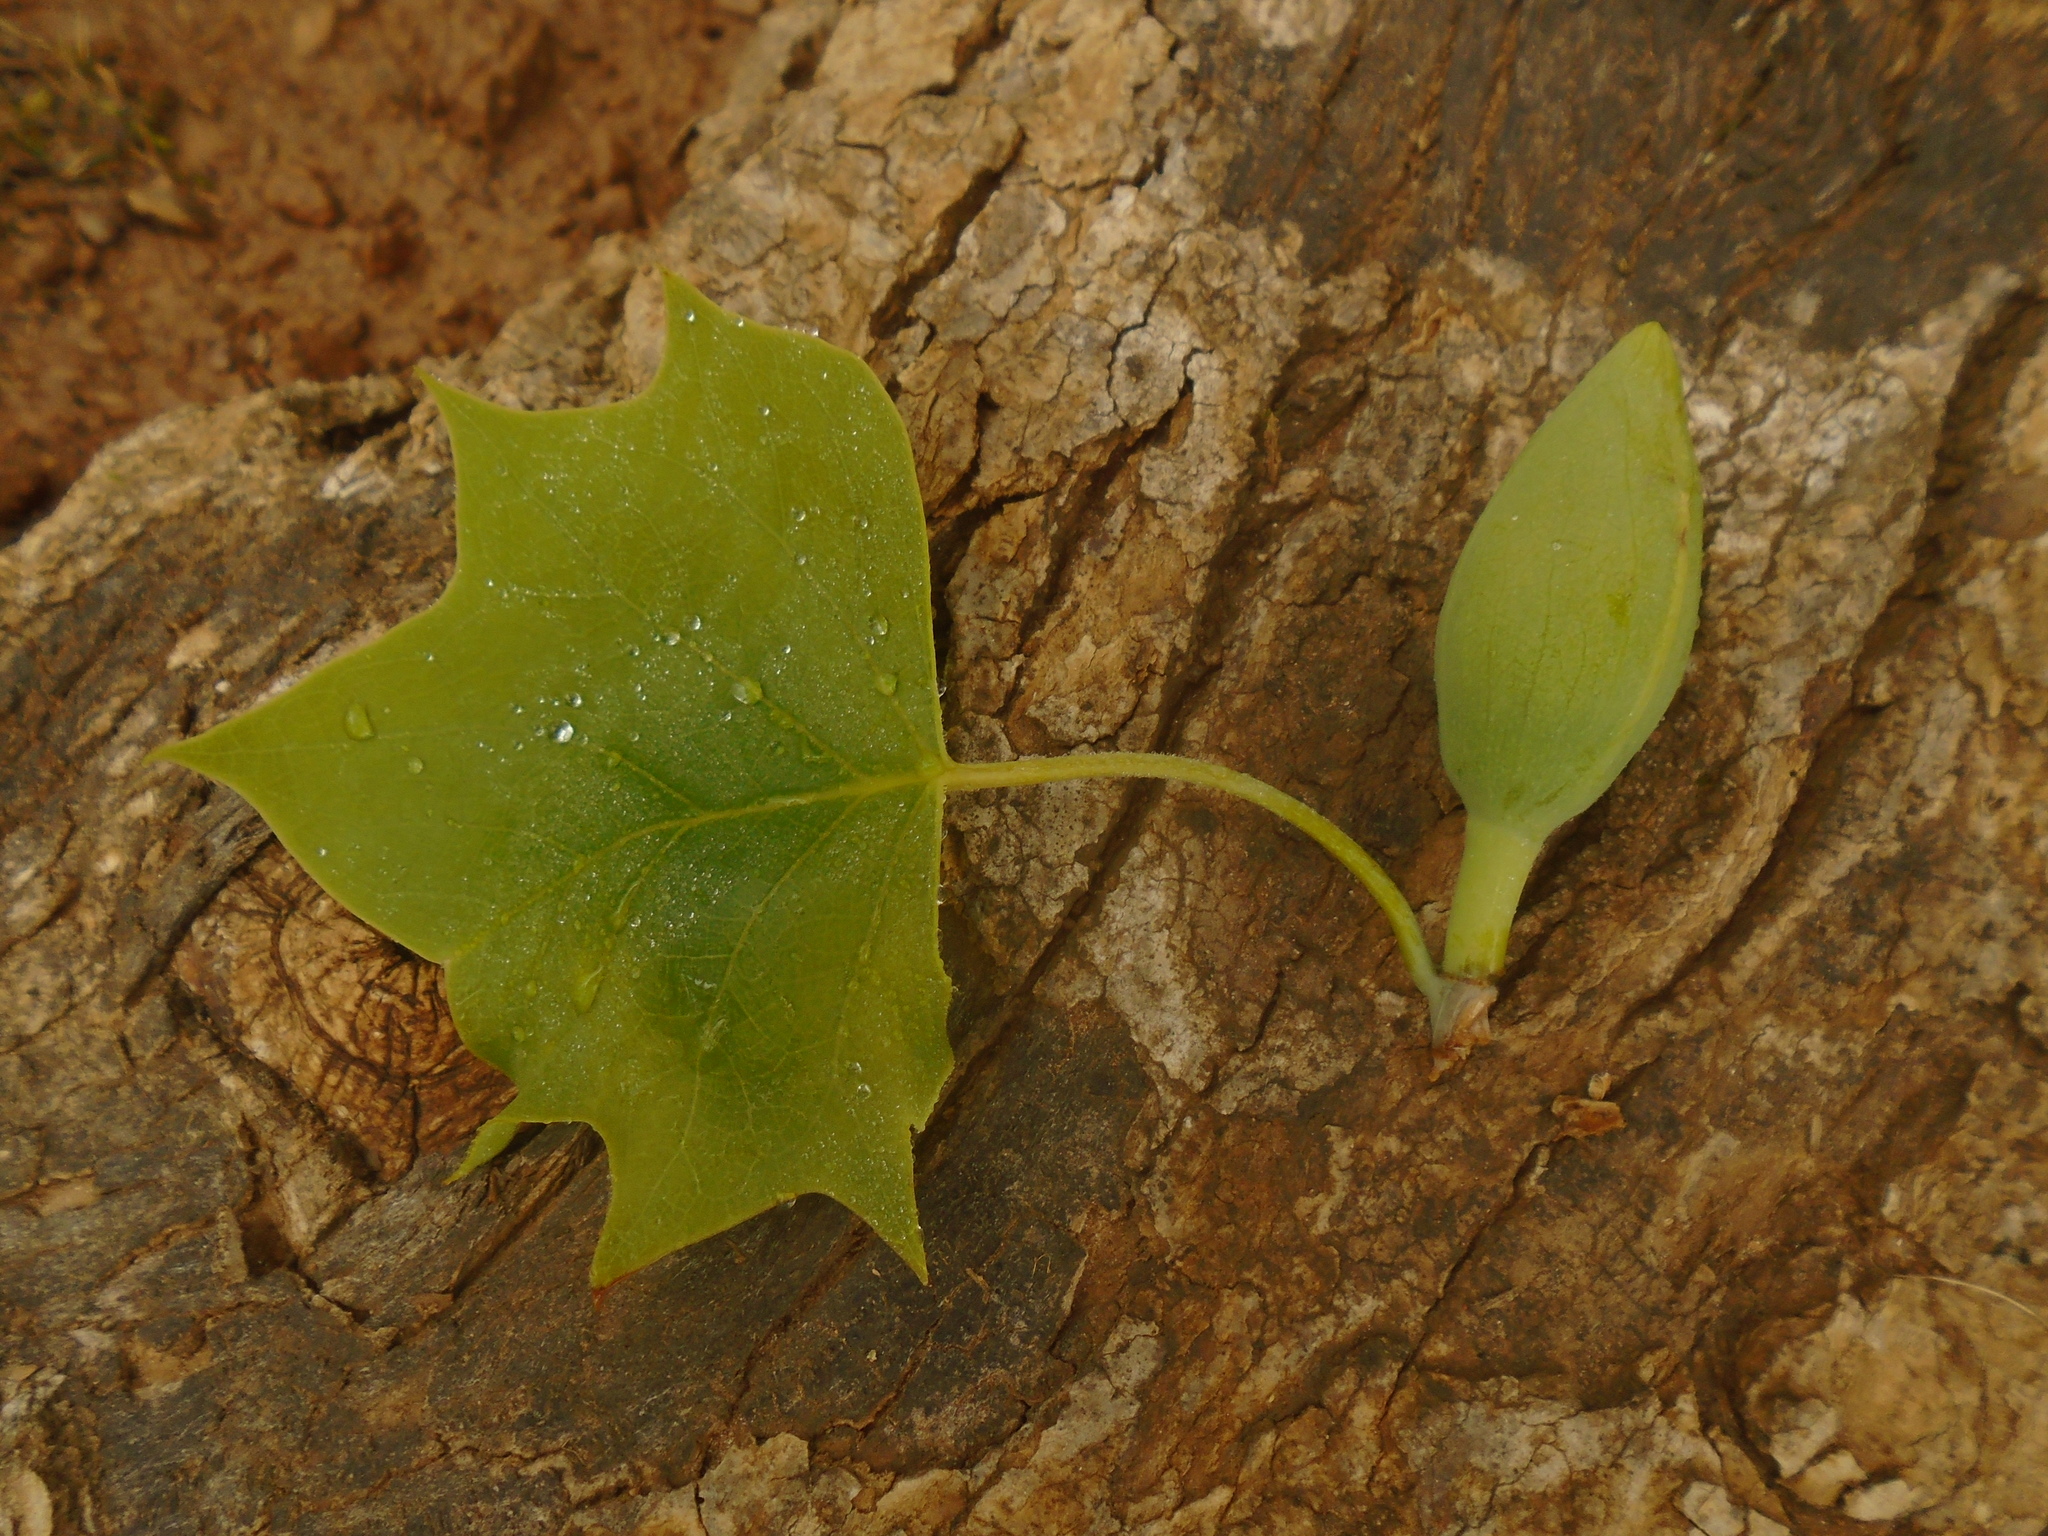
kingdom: Plantae
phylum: Tracheophyta
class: Magnoliopsida
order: Magnoliales
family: Magnoliaceae
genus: Liriodendron
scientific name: Liriodendron tulipifera
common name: Tulip tree
